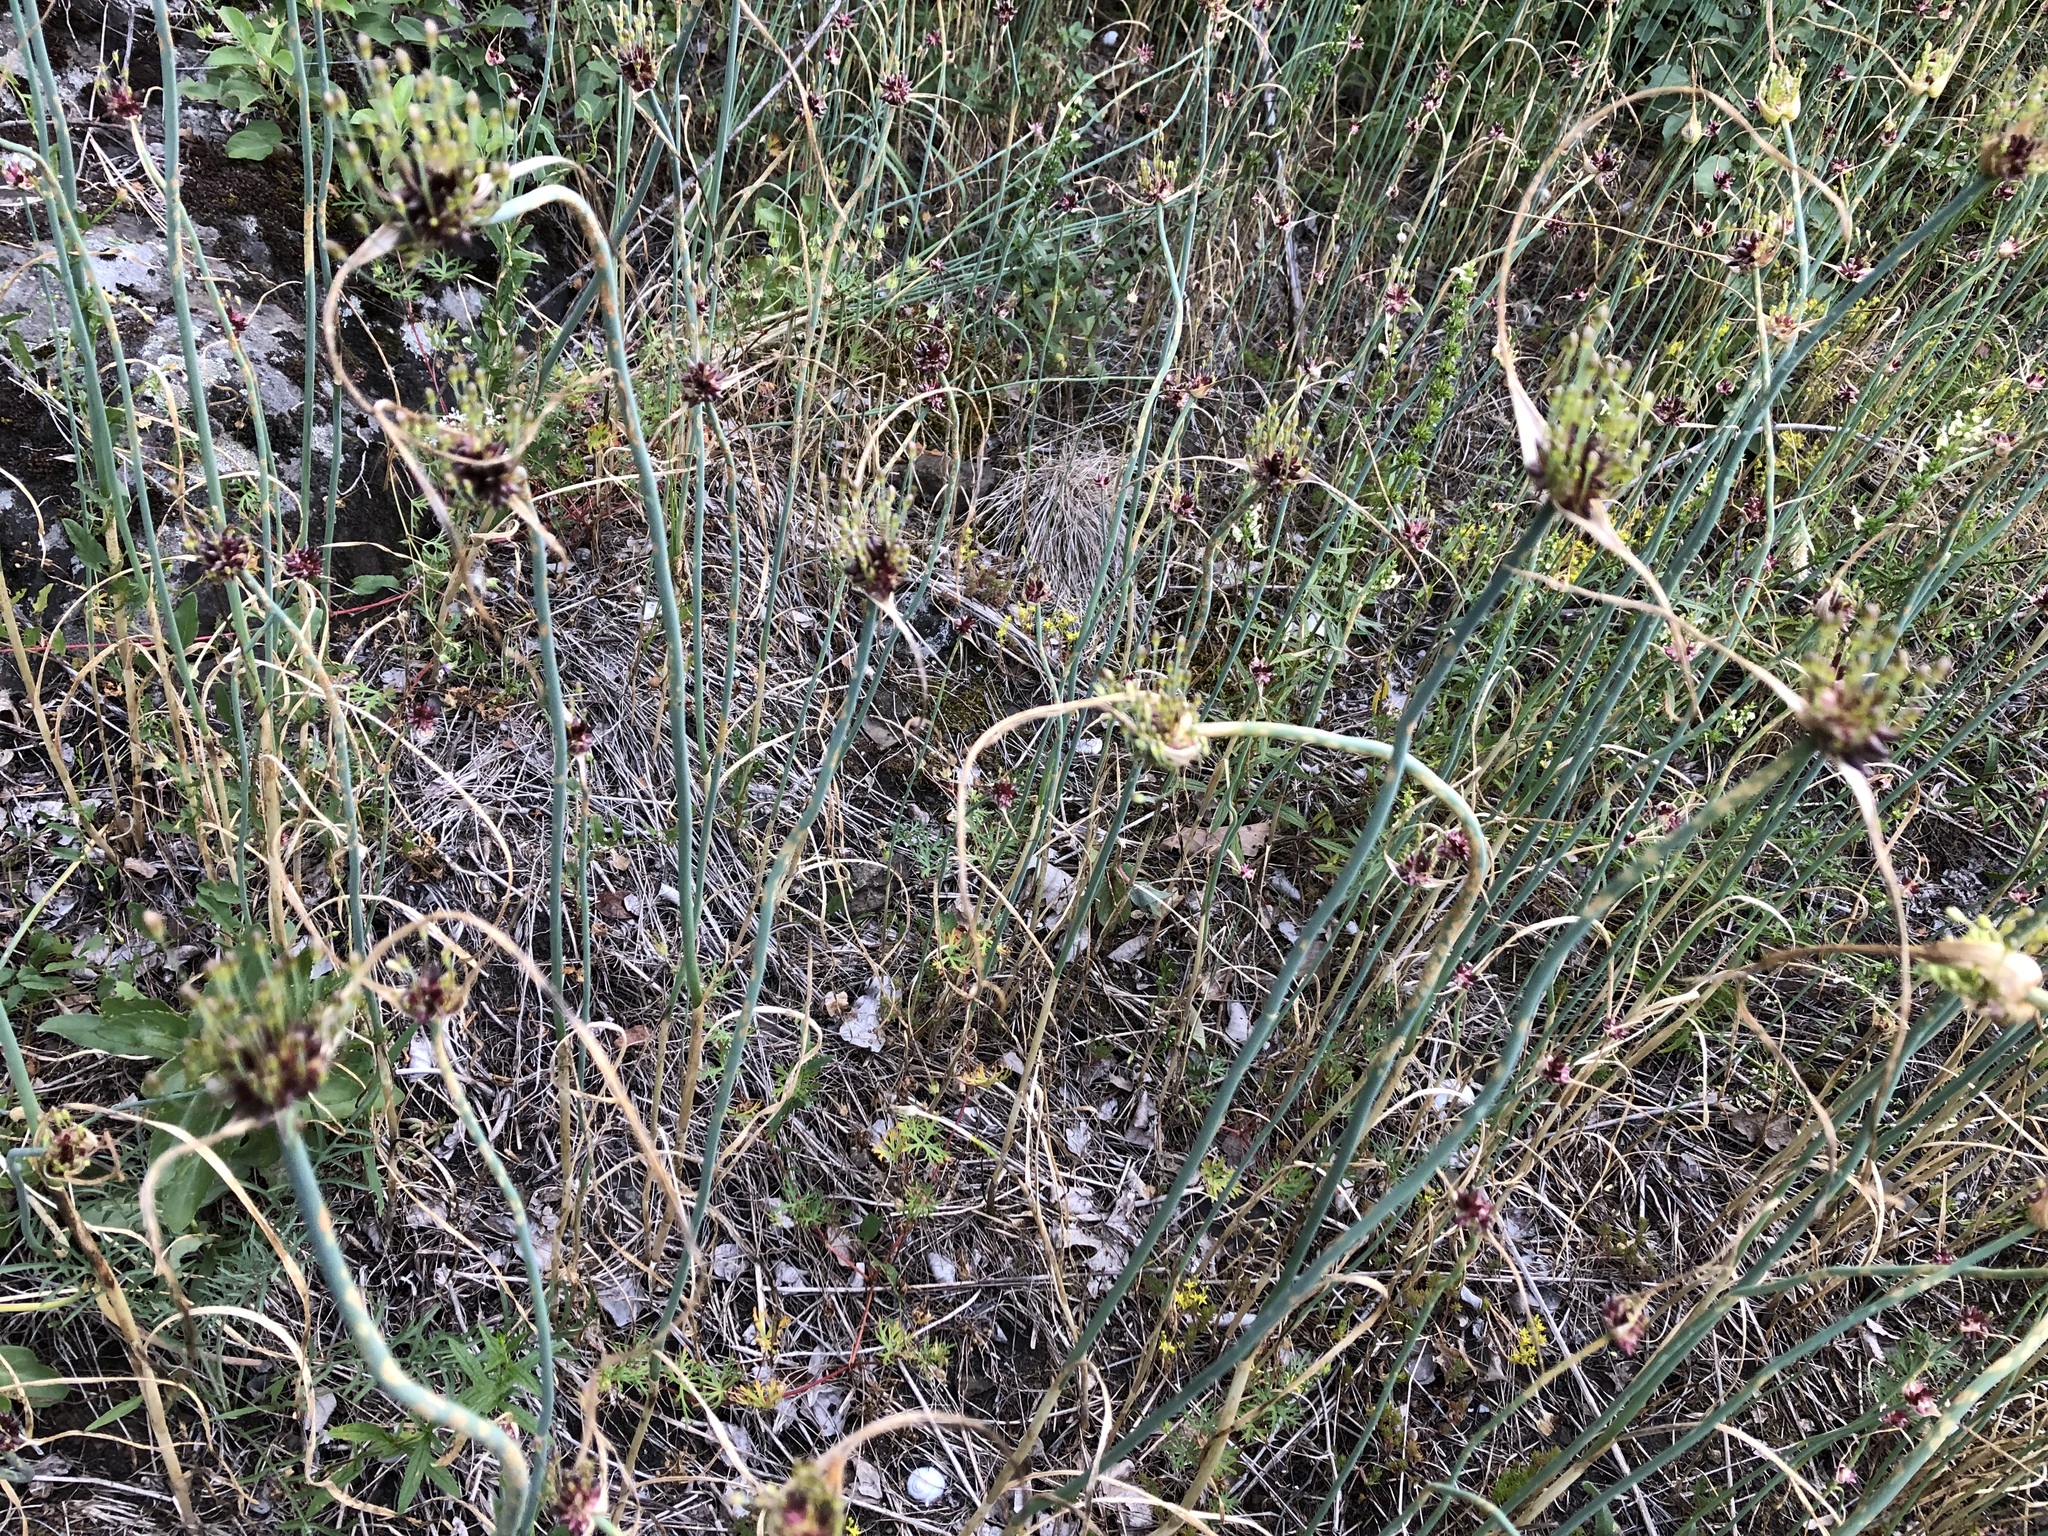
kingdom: Plantae
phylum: Tracheophyta
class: Liliopsida
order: Asparagales
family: Amaryllidaceae
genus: Allium
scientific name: Allium oleraceum
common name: Field garlic
